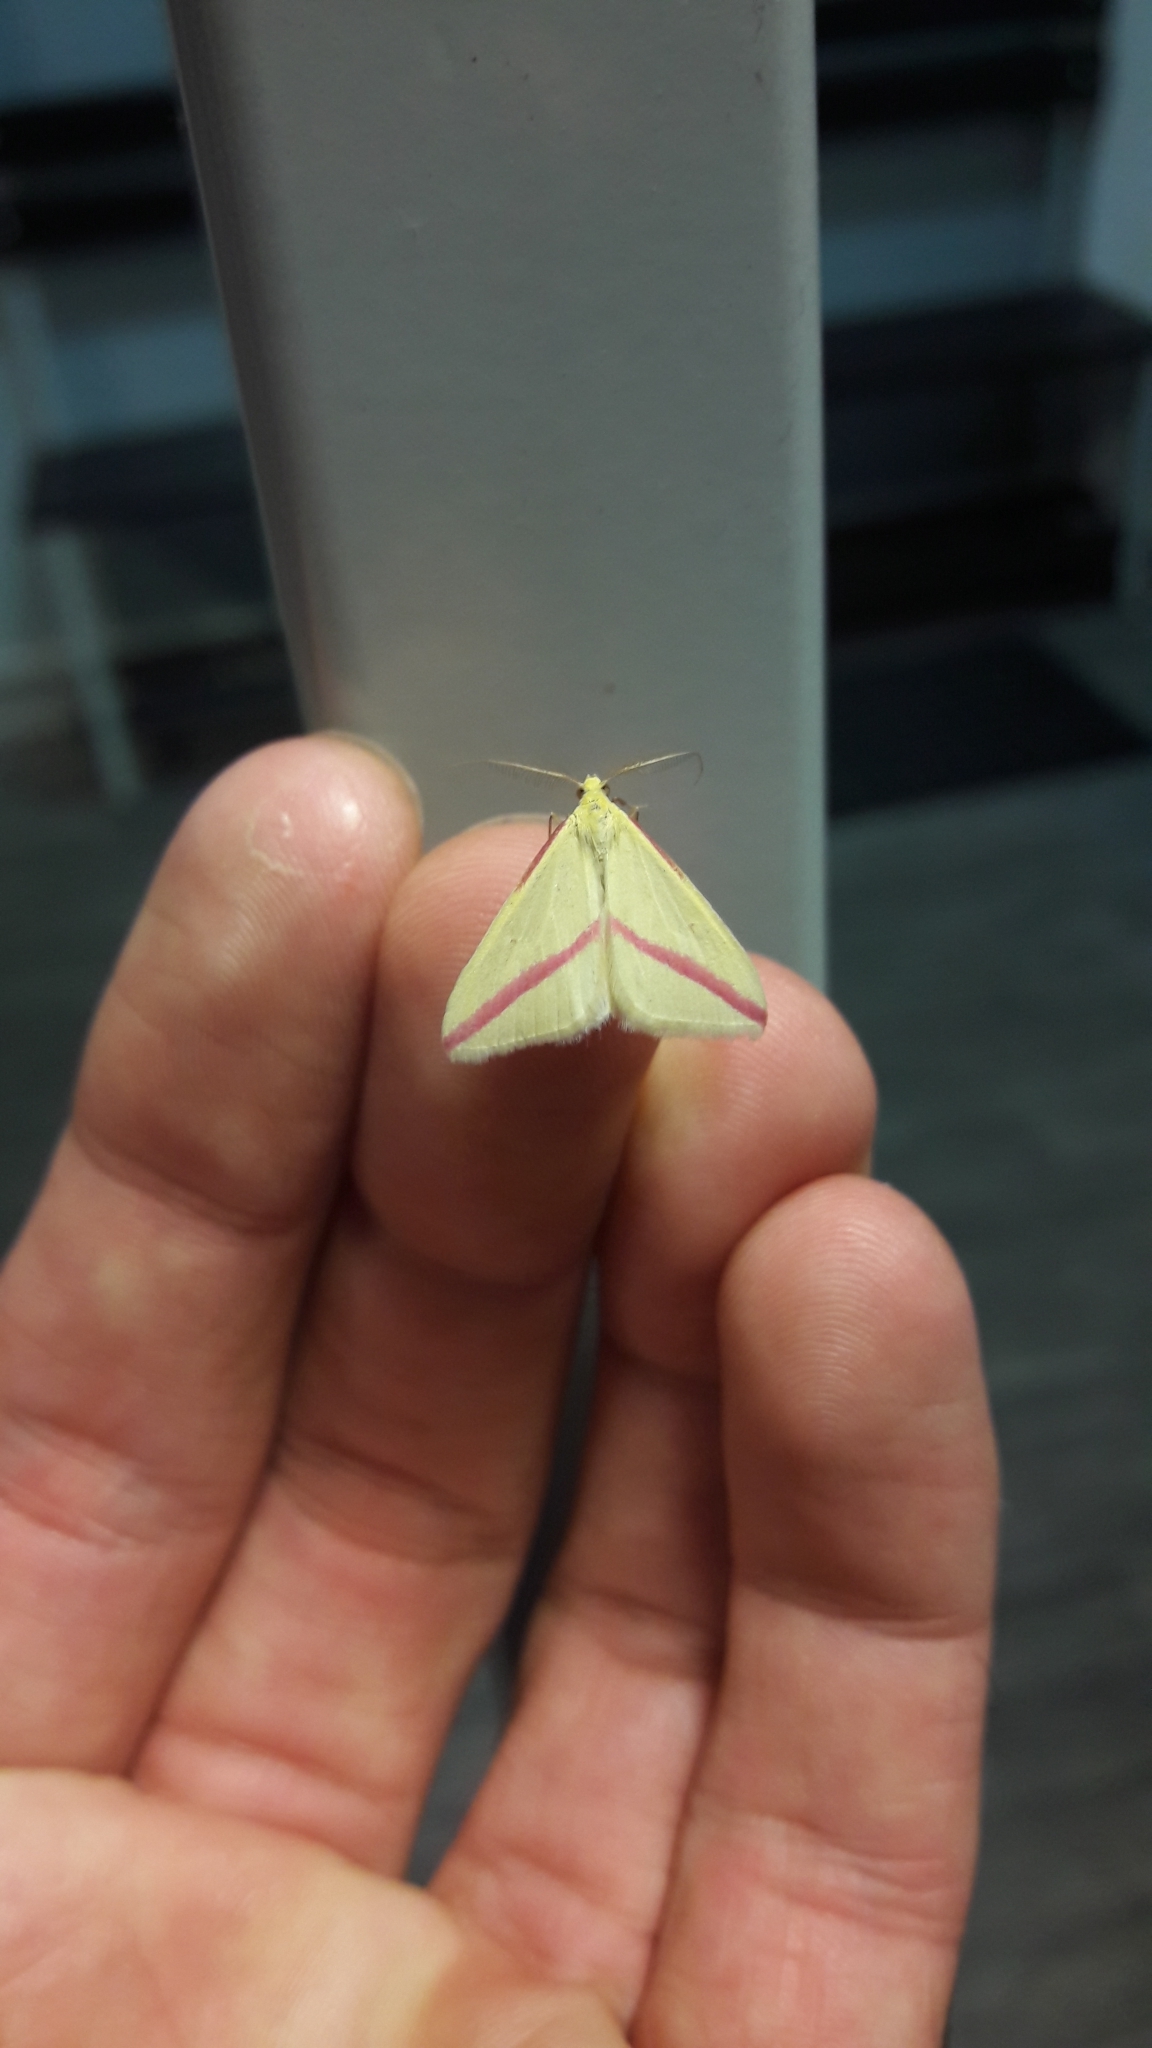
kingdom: Animalia
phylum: Arthropoda
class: Insecta
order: Lepidoptera
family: Geometridae
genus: Rhodometra
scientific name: Rhodometra sacraria
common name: Vestal
